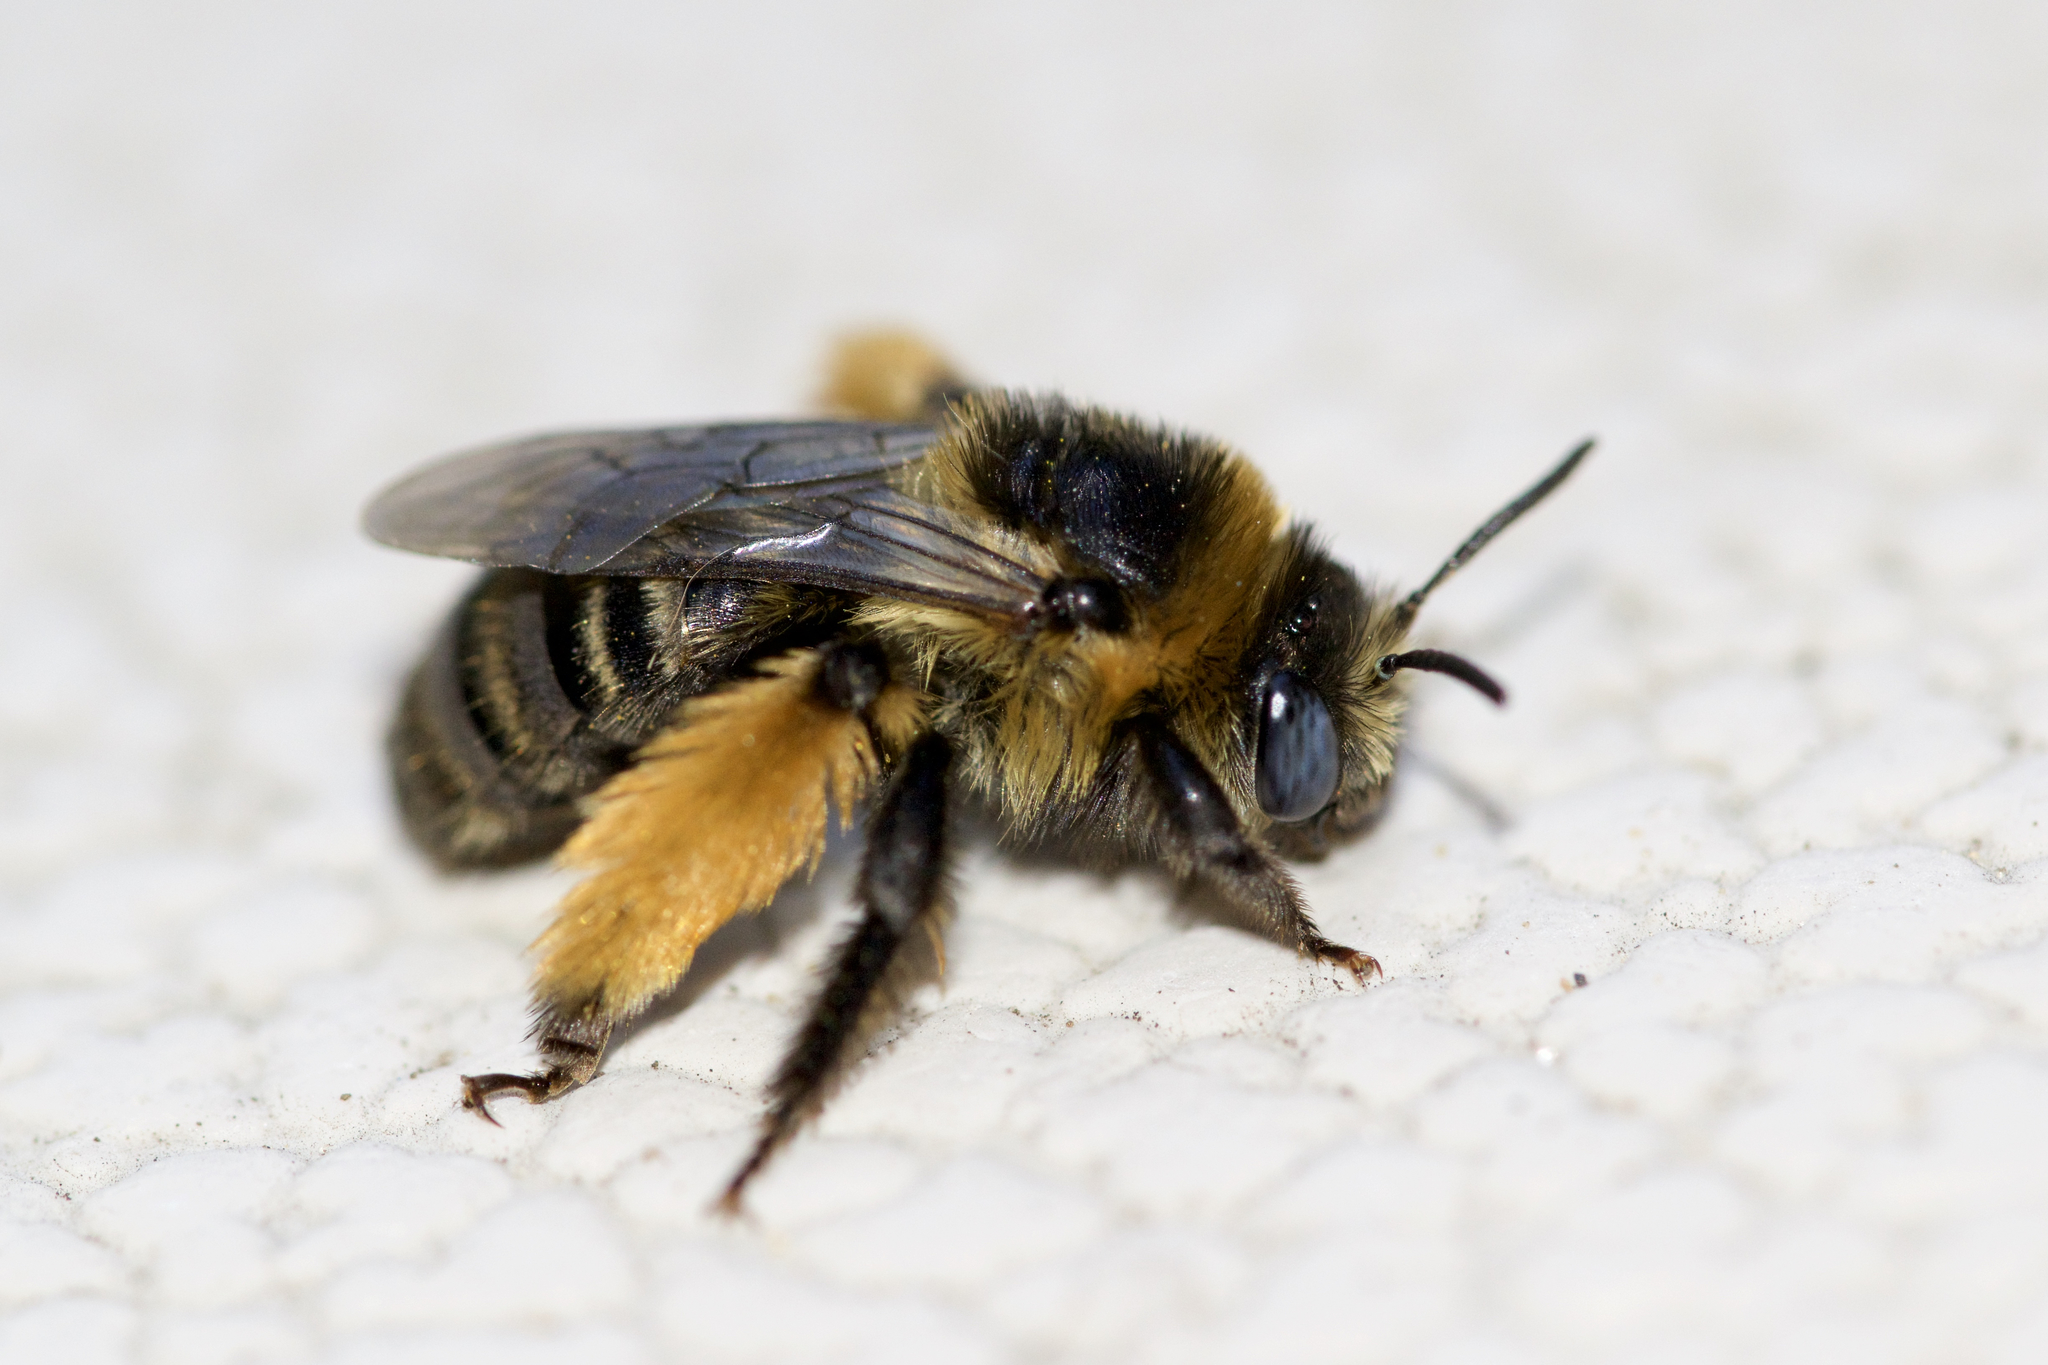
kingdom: Animalia
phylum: Arthropoda
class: Insecta
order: Hymenoptera
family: Apidae
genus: Melissodes
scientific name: Melissodes druriellus
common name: Drury's long-horned bee
